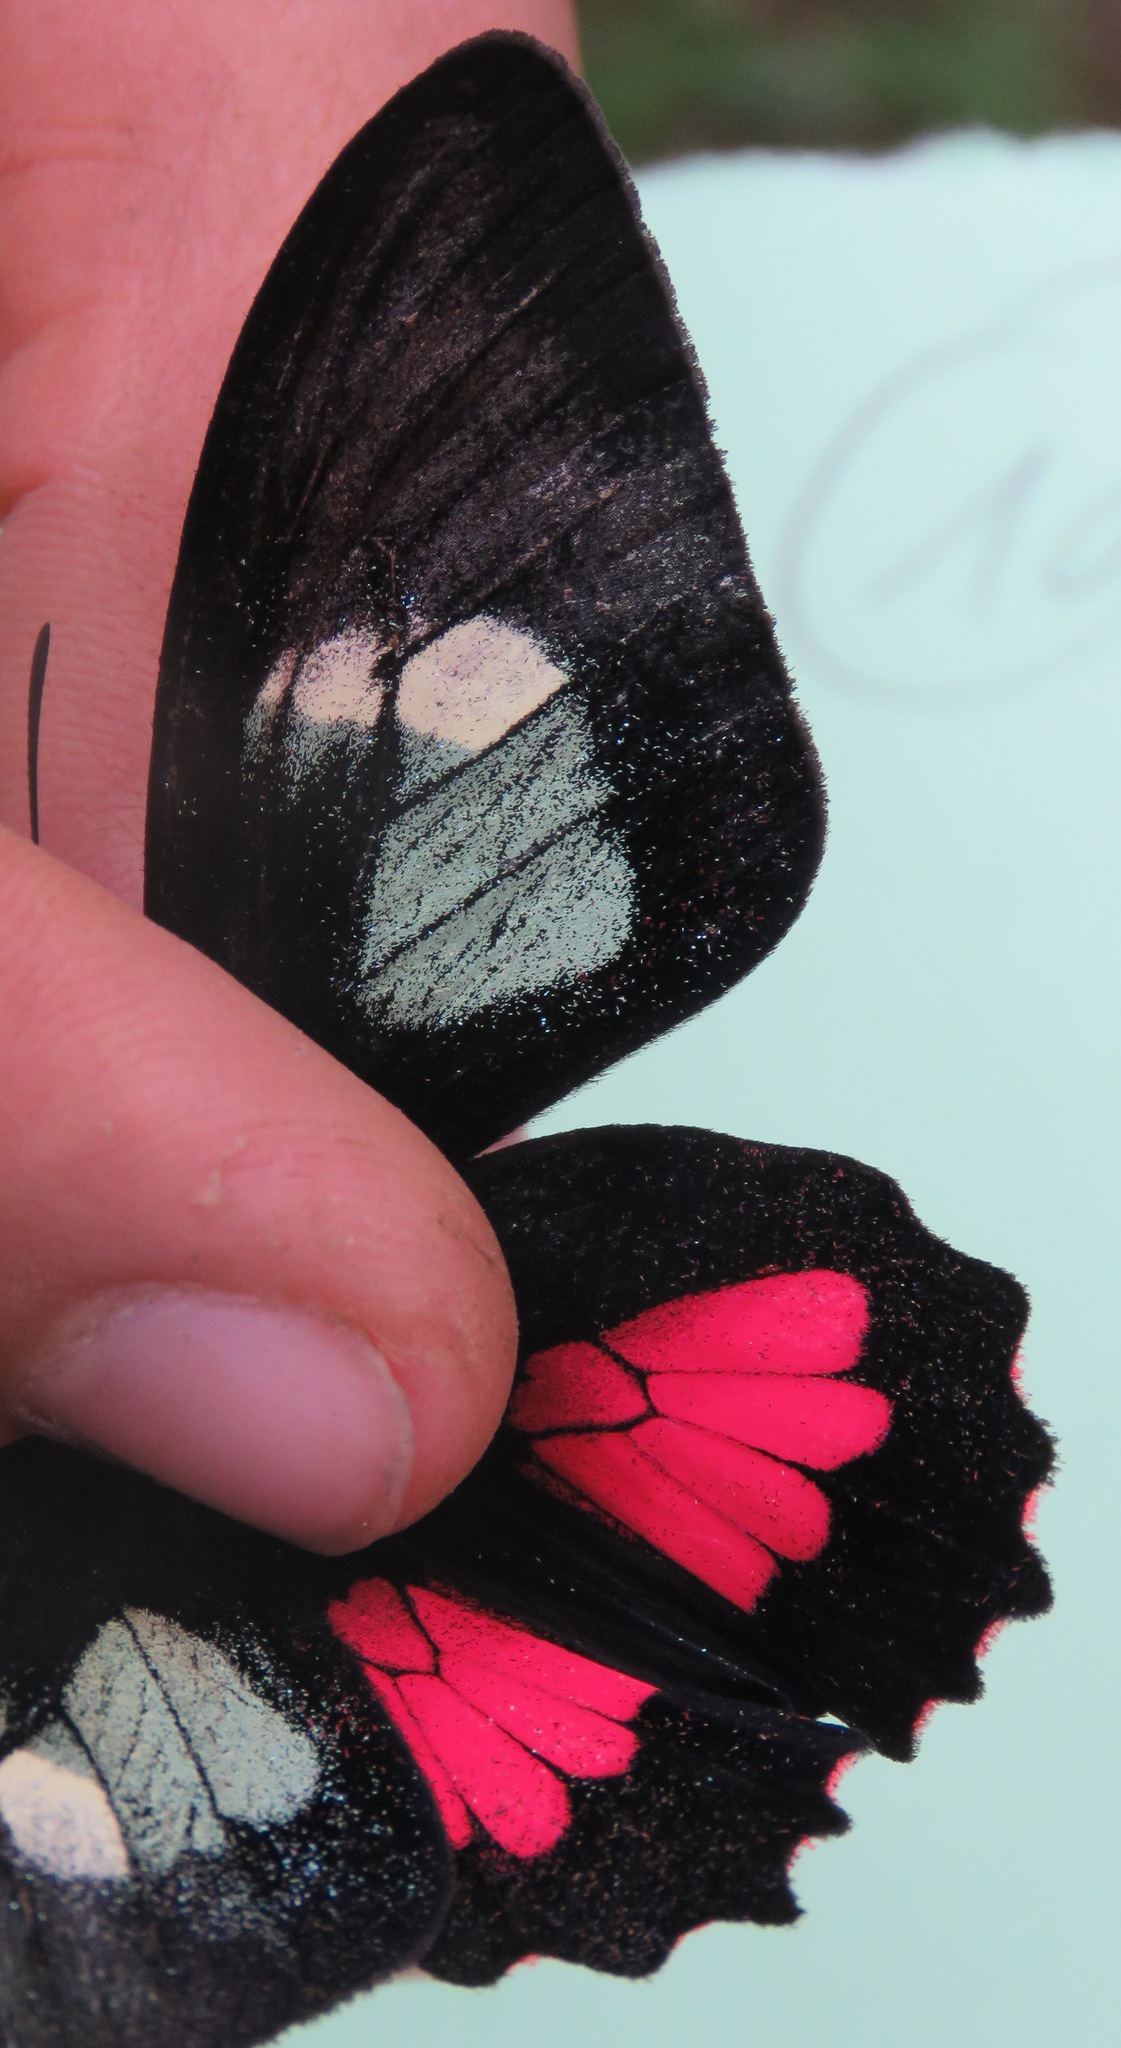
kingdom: Animalia
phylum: Arthropoda
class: Insecta
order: Lepidoptera
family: Papilionidae
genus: Parides
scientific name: Parides eurimedes
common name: True cattleheart
